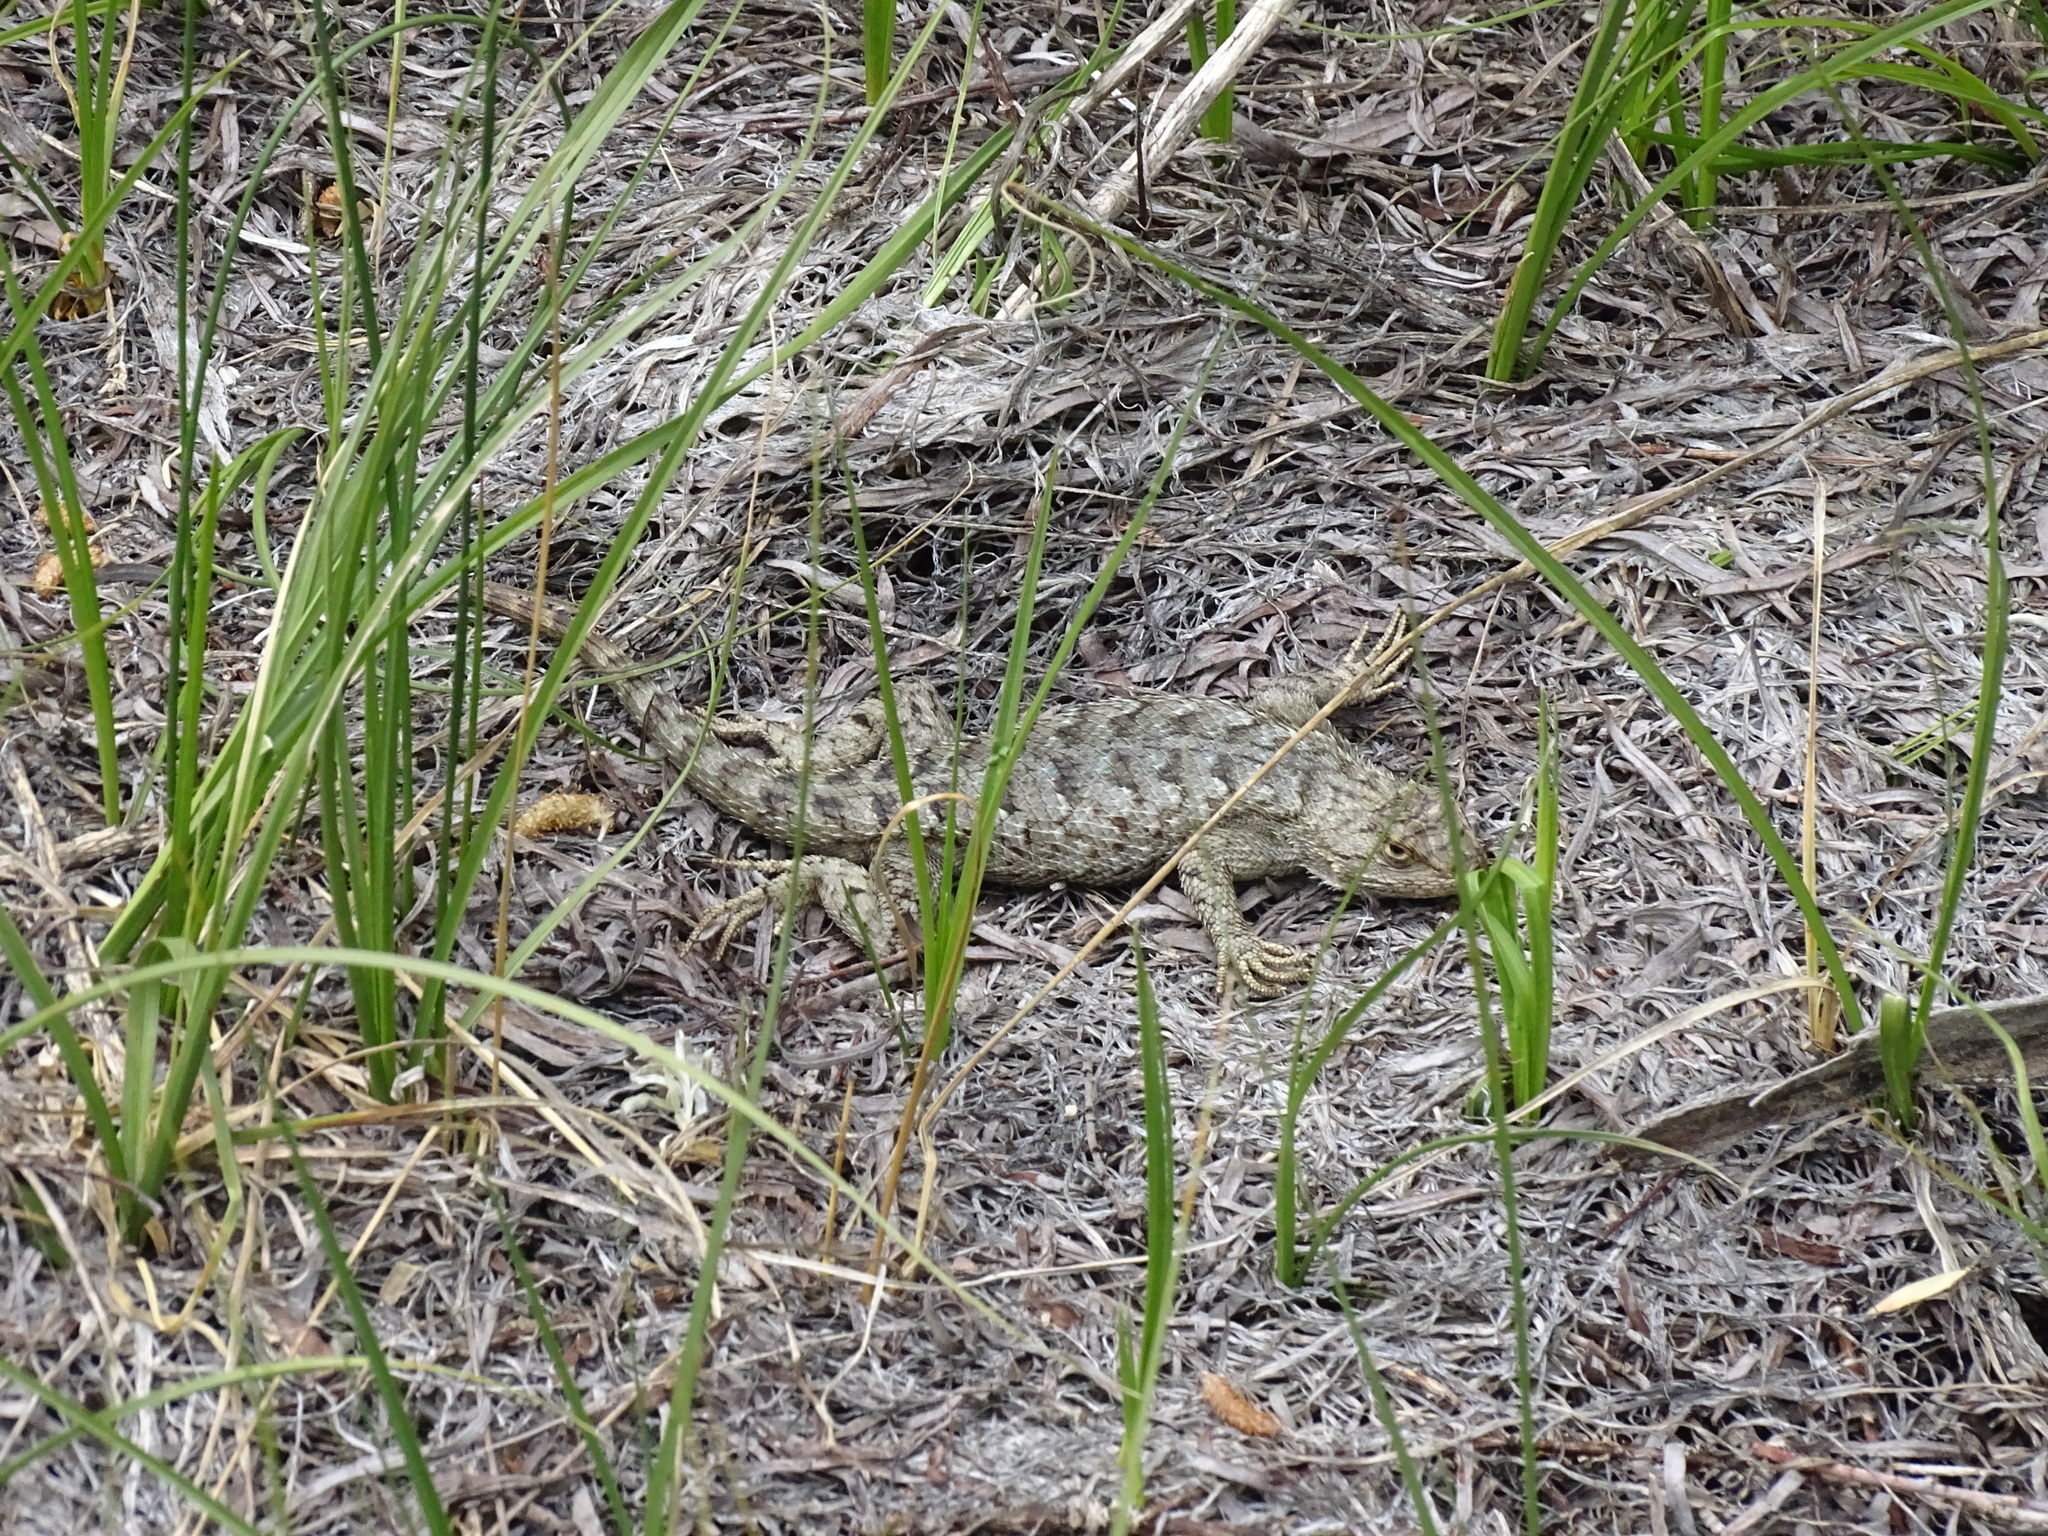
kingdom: Animalia
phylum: Chordata
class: Squamata
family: Phrynosomatidae
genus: Sceloporus
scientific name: Sceloporus occidentalis
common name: Western fence lizard
